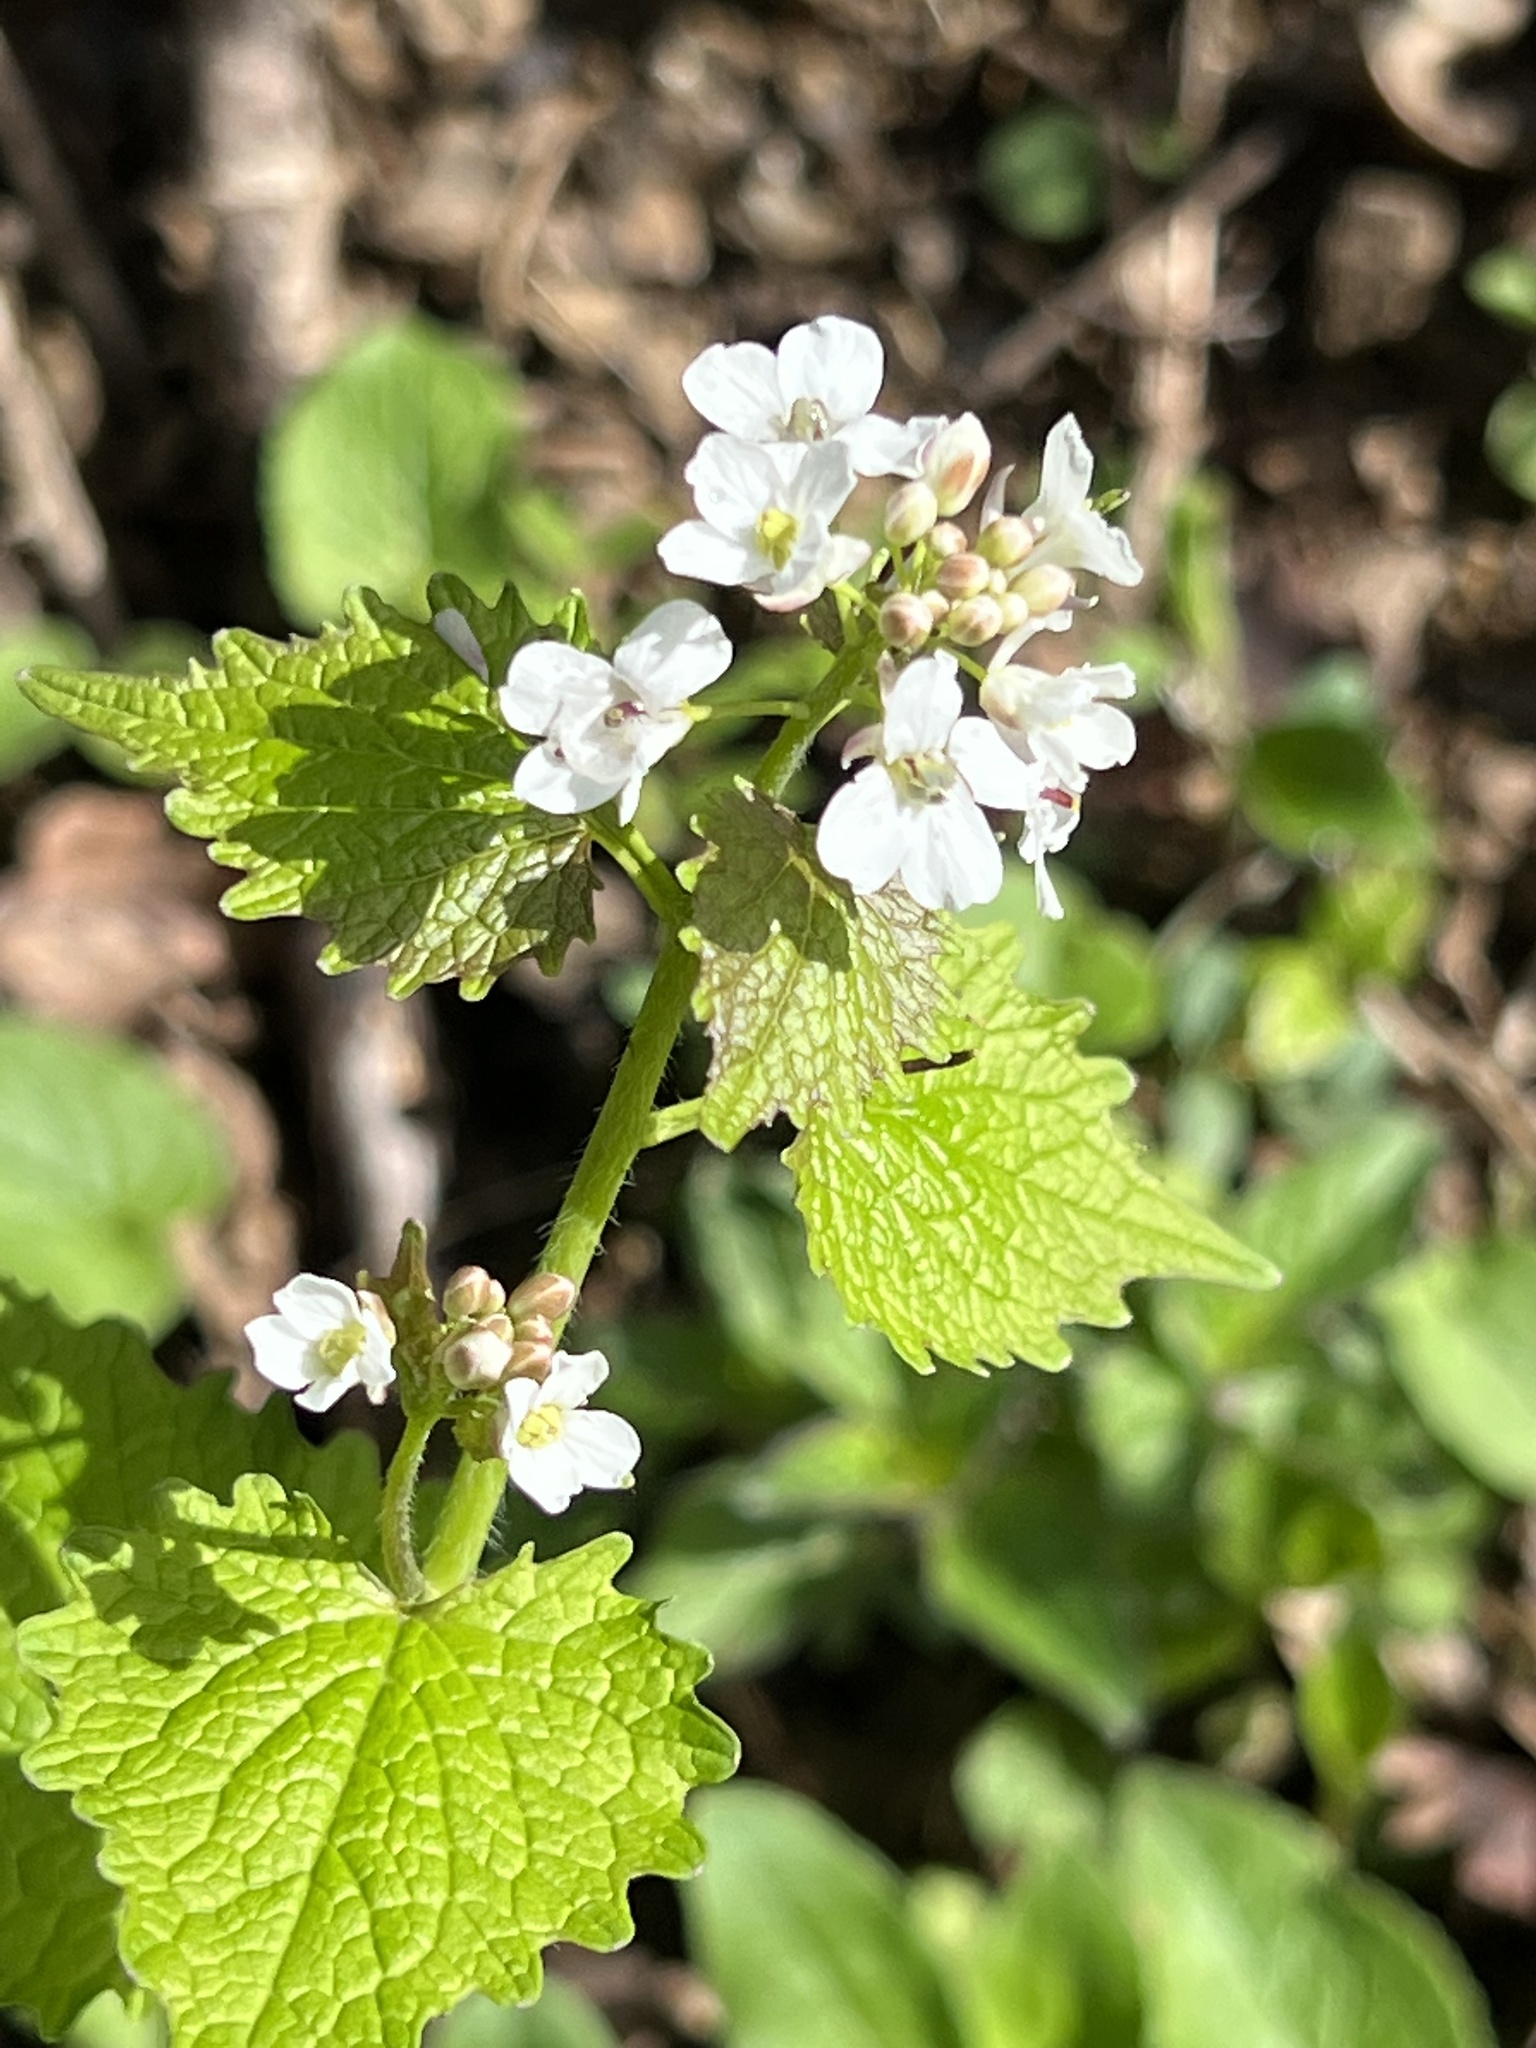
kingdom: Plantae
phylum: Tracheophyta
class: Magnoliopsida
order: Brassicales
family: Brassicaceae
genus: Alliaria
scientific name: Alliaria petiolata
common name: Garlic mustard
